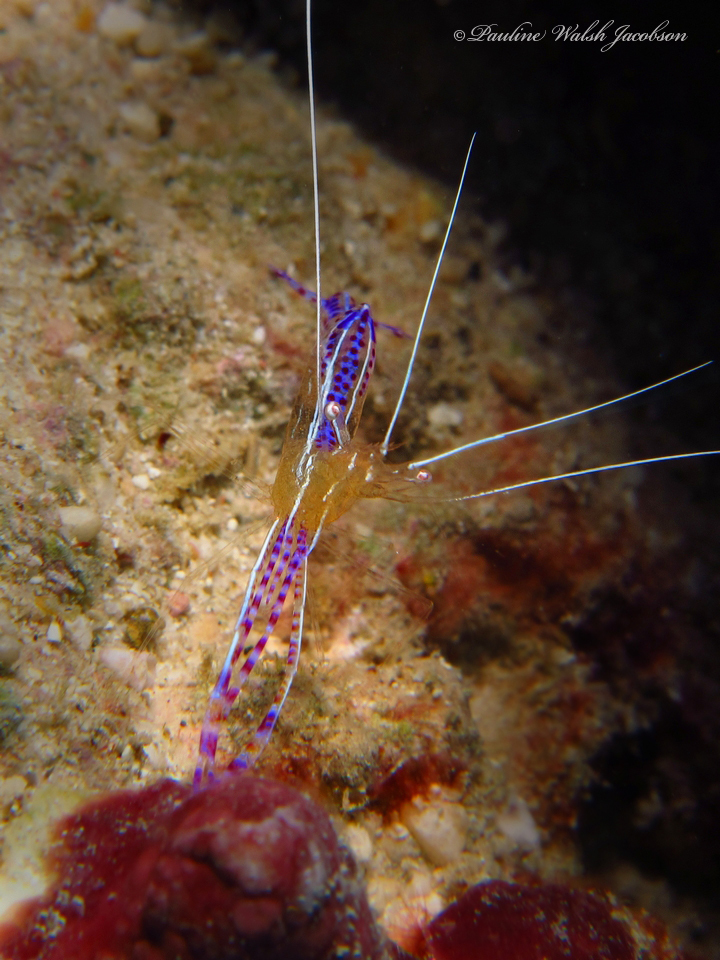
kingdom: Animalia
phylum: Arthropoda
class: Malacostraca
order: Decapoda
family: Palaemonidae
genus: Ancylomenes
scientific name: Ancylomenes pedersoni
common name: Pederson's cleaning shrimp
